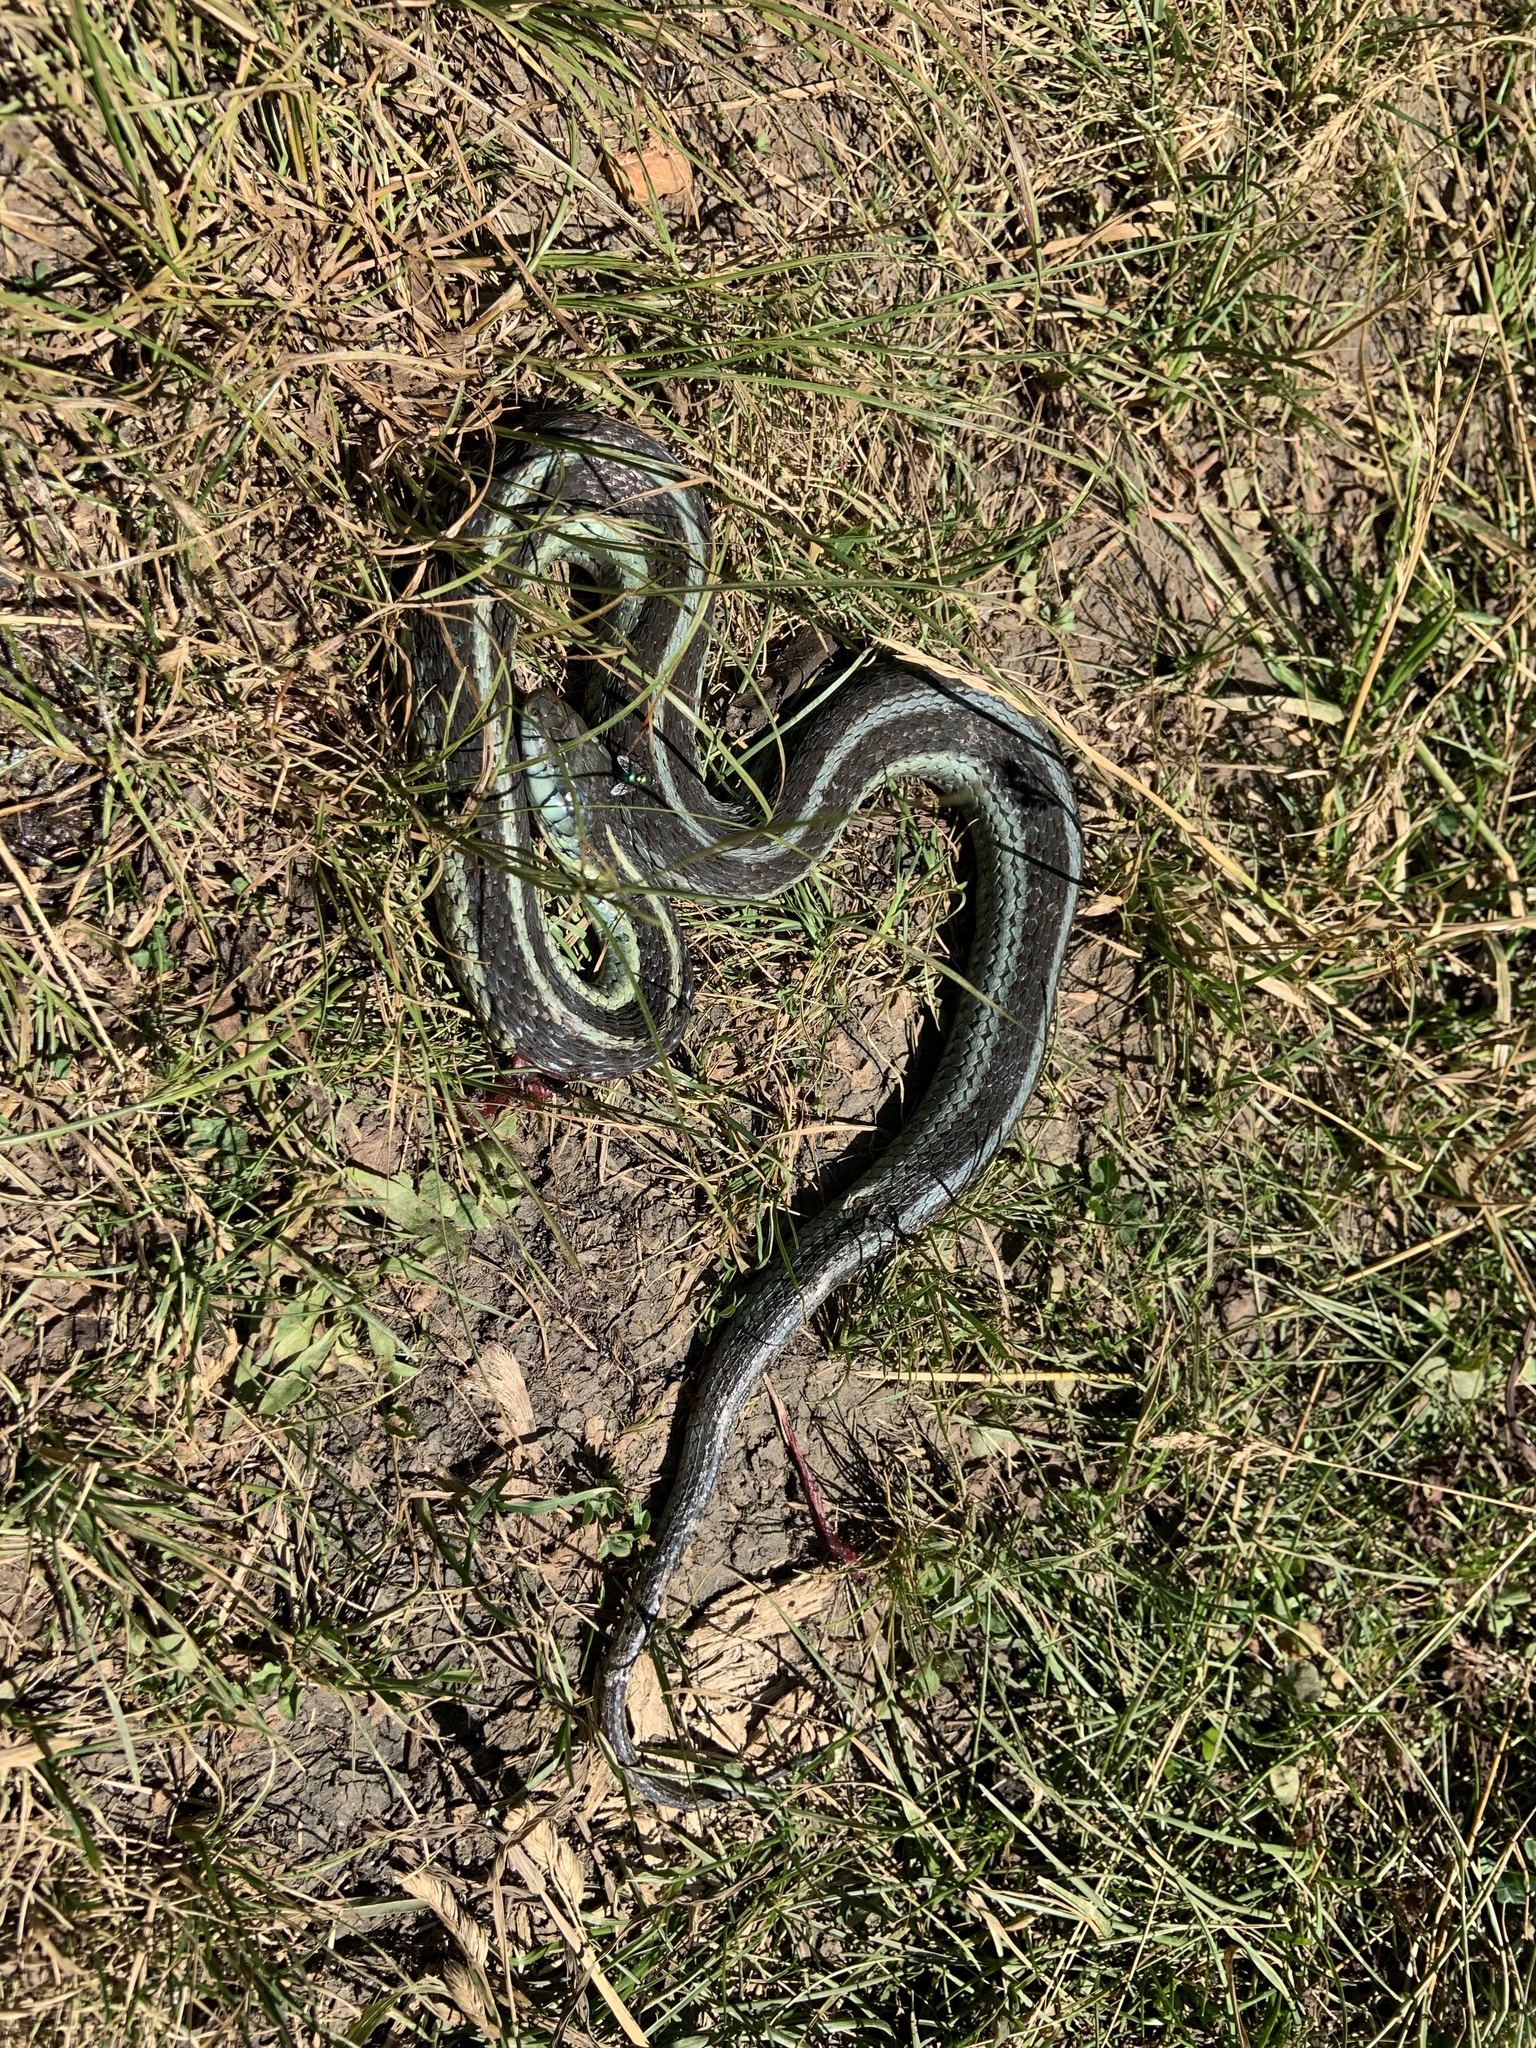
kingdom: Animalia
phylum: Chordata
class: Squamata
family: Colubridae
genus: Thamnophis
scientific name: Thamnophis sirtalis
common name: Common garter snake
